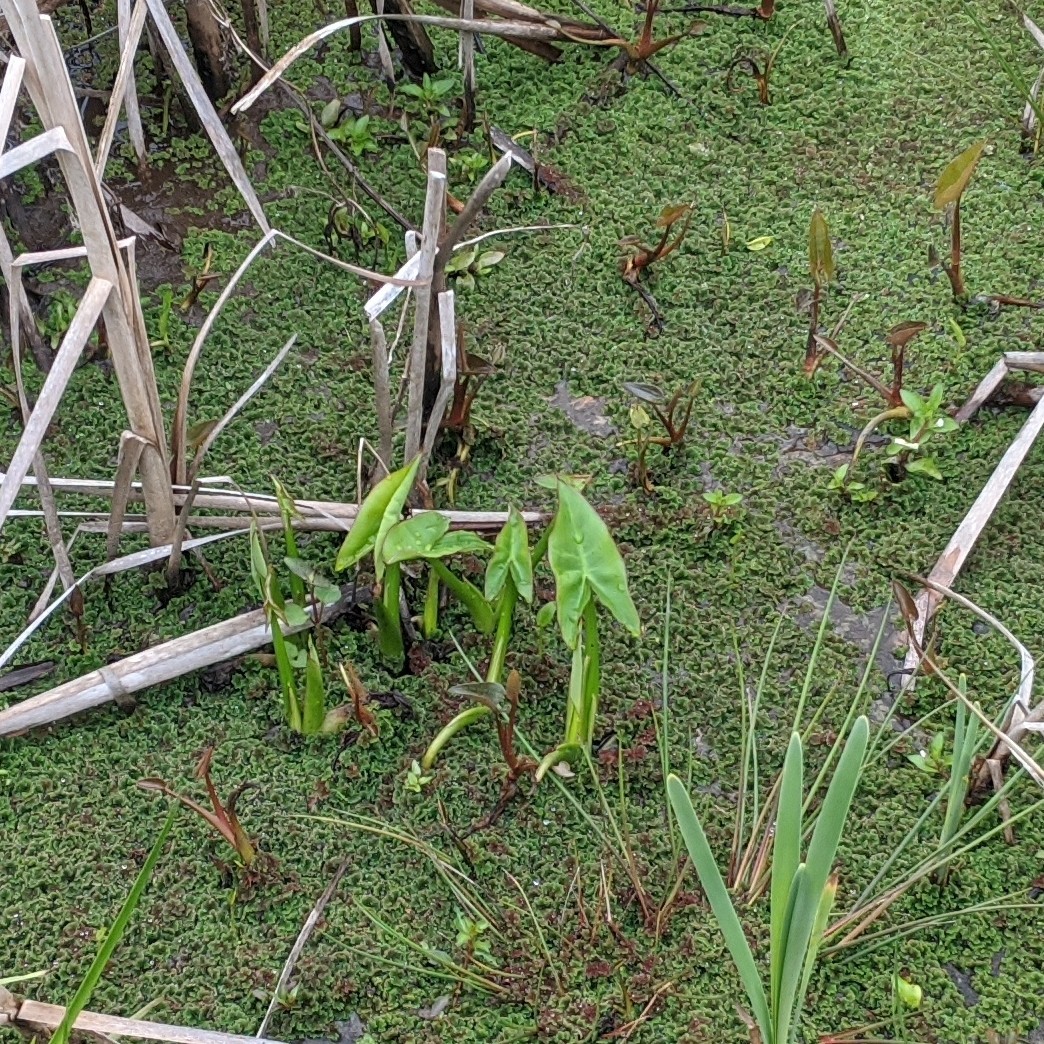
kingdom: Plantae
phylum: Tracheophyta
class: Liliopsida
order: Alismatales
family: Araceae
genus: Peltandra
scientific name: Peltandra virginica
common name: Arrow arum
